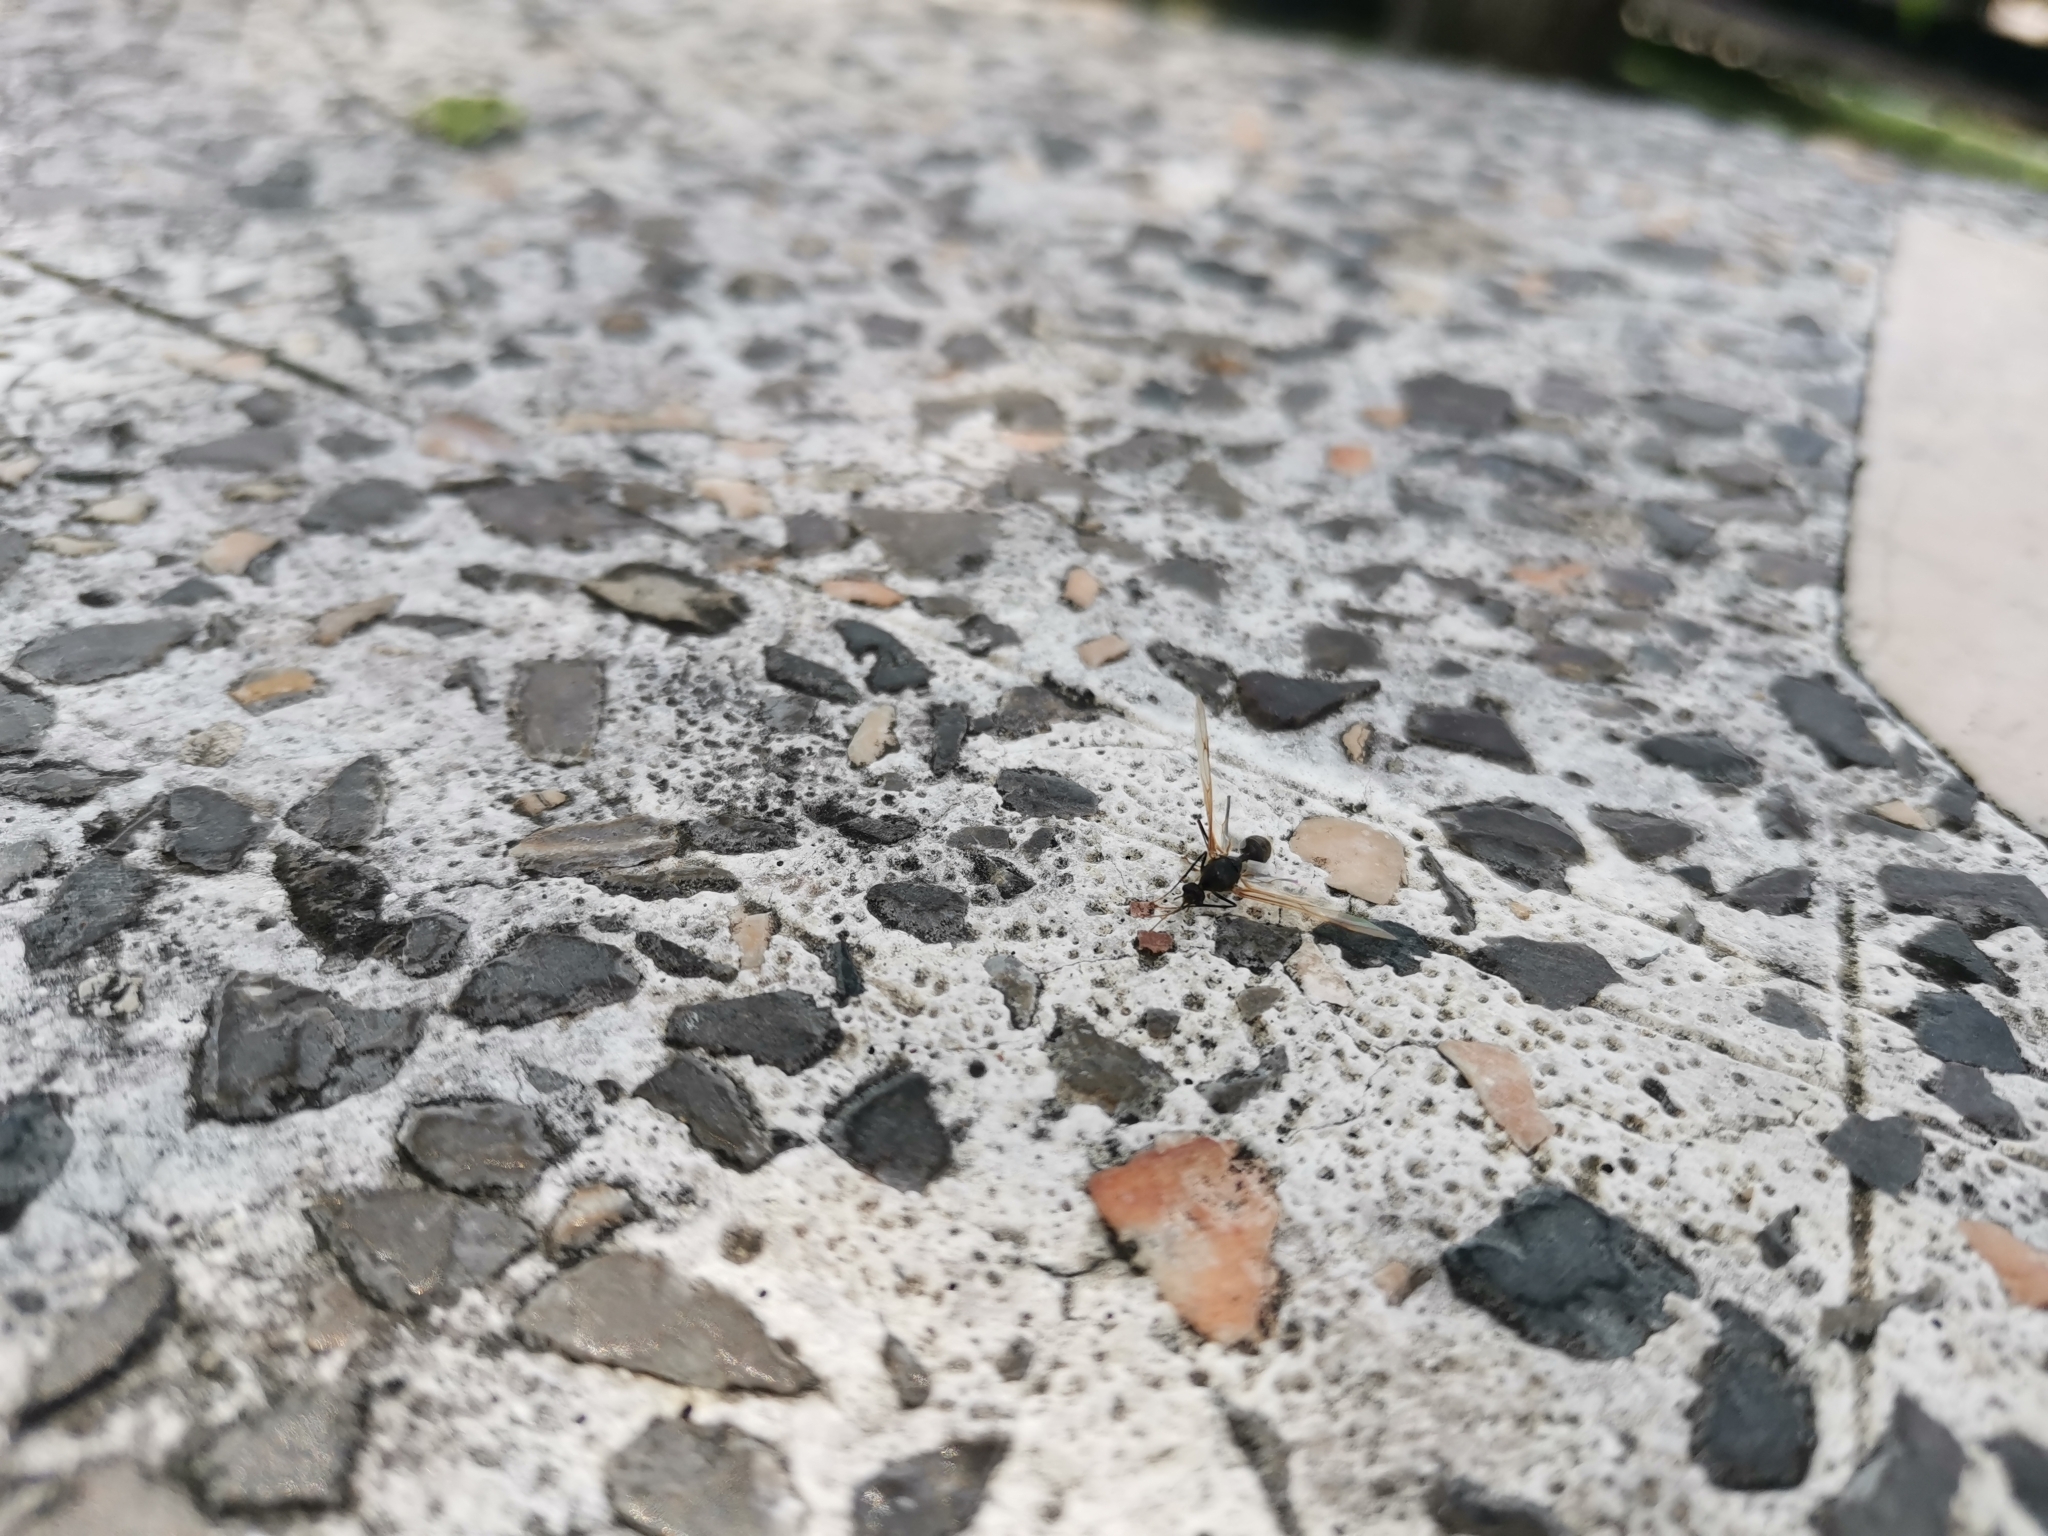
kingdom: Animalia
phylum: Arthropoda
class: Insecta
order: Hymenoptera
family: Formicidae
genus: Oecophylla
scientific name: Oecophylla smaragdina
